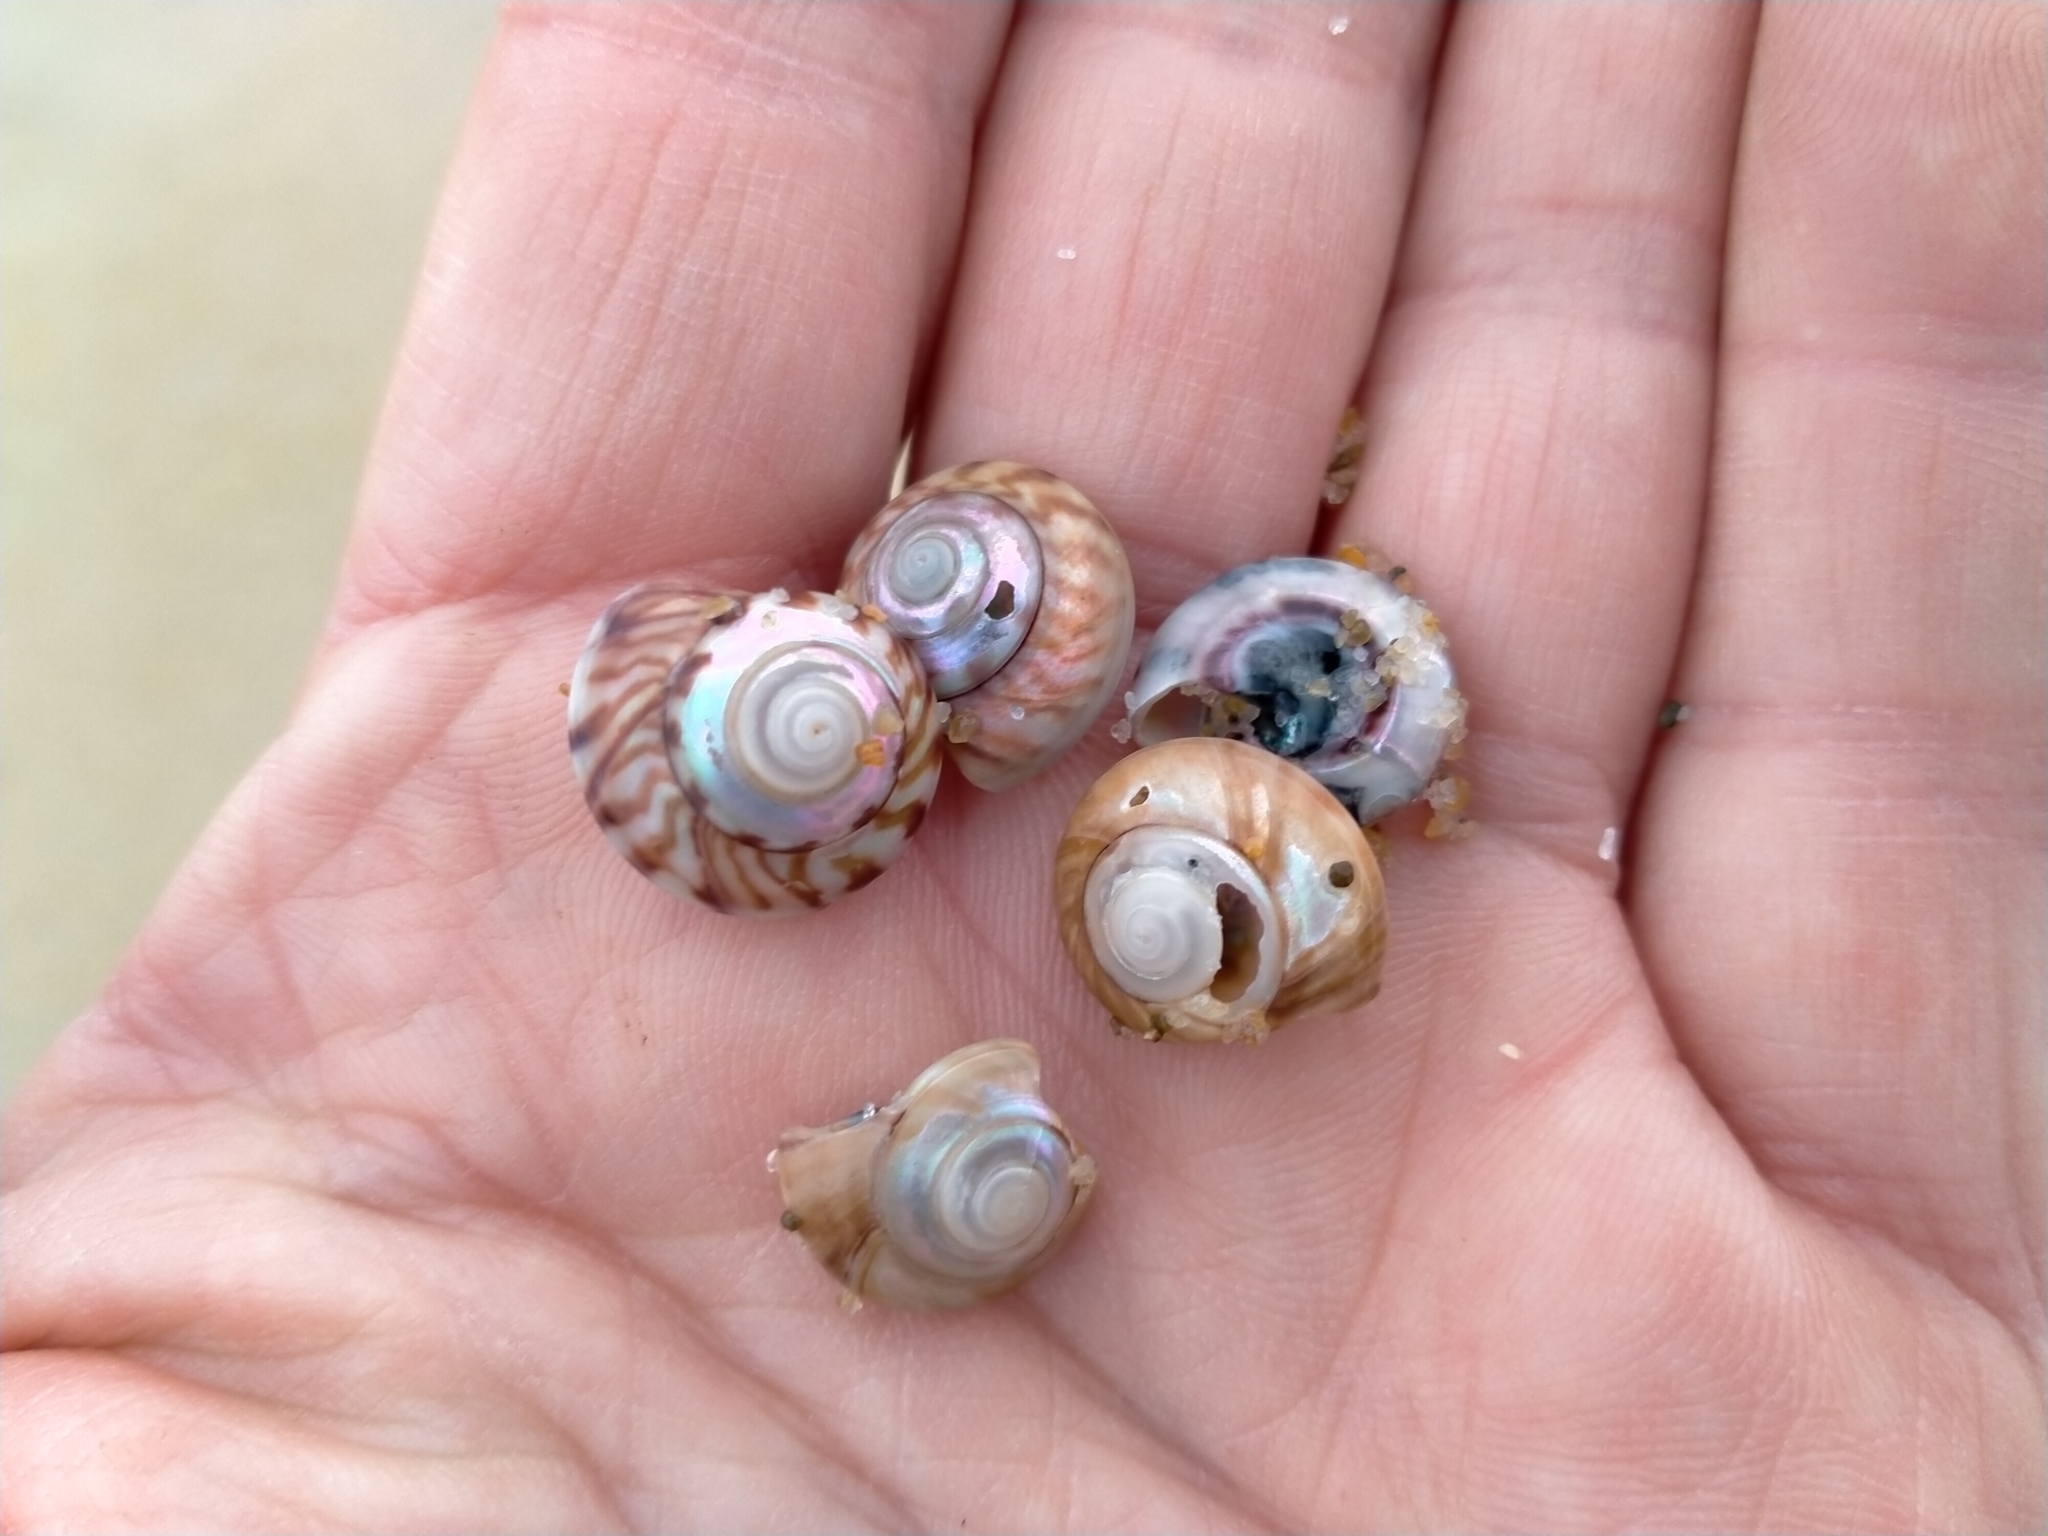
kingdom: Animalia
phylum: Mollusca
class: Gastropoda
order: Trochida
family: Trochidae
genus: Zethalia
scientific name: Zethalia zelandica
